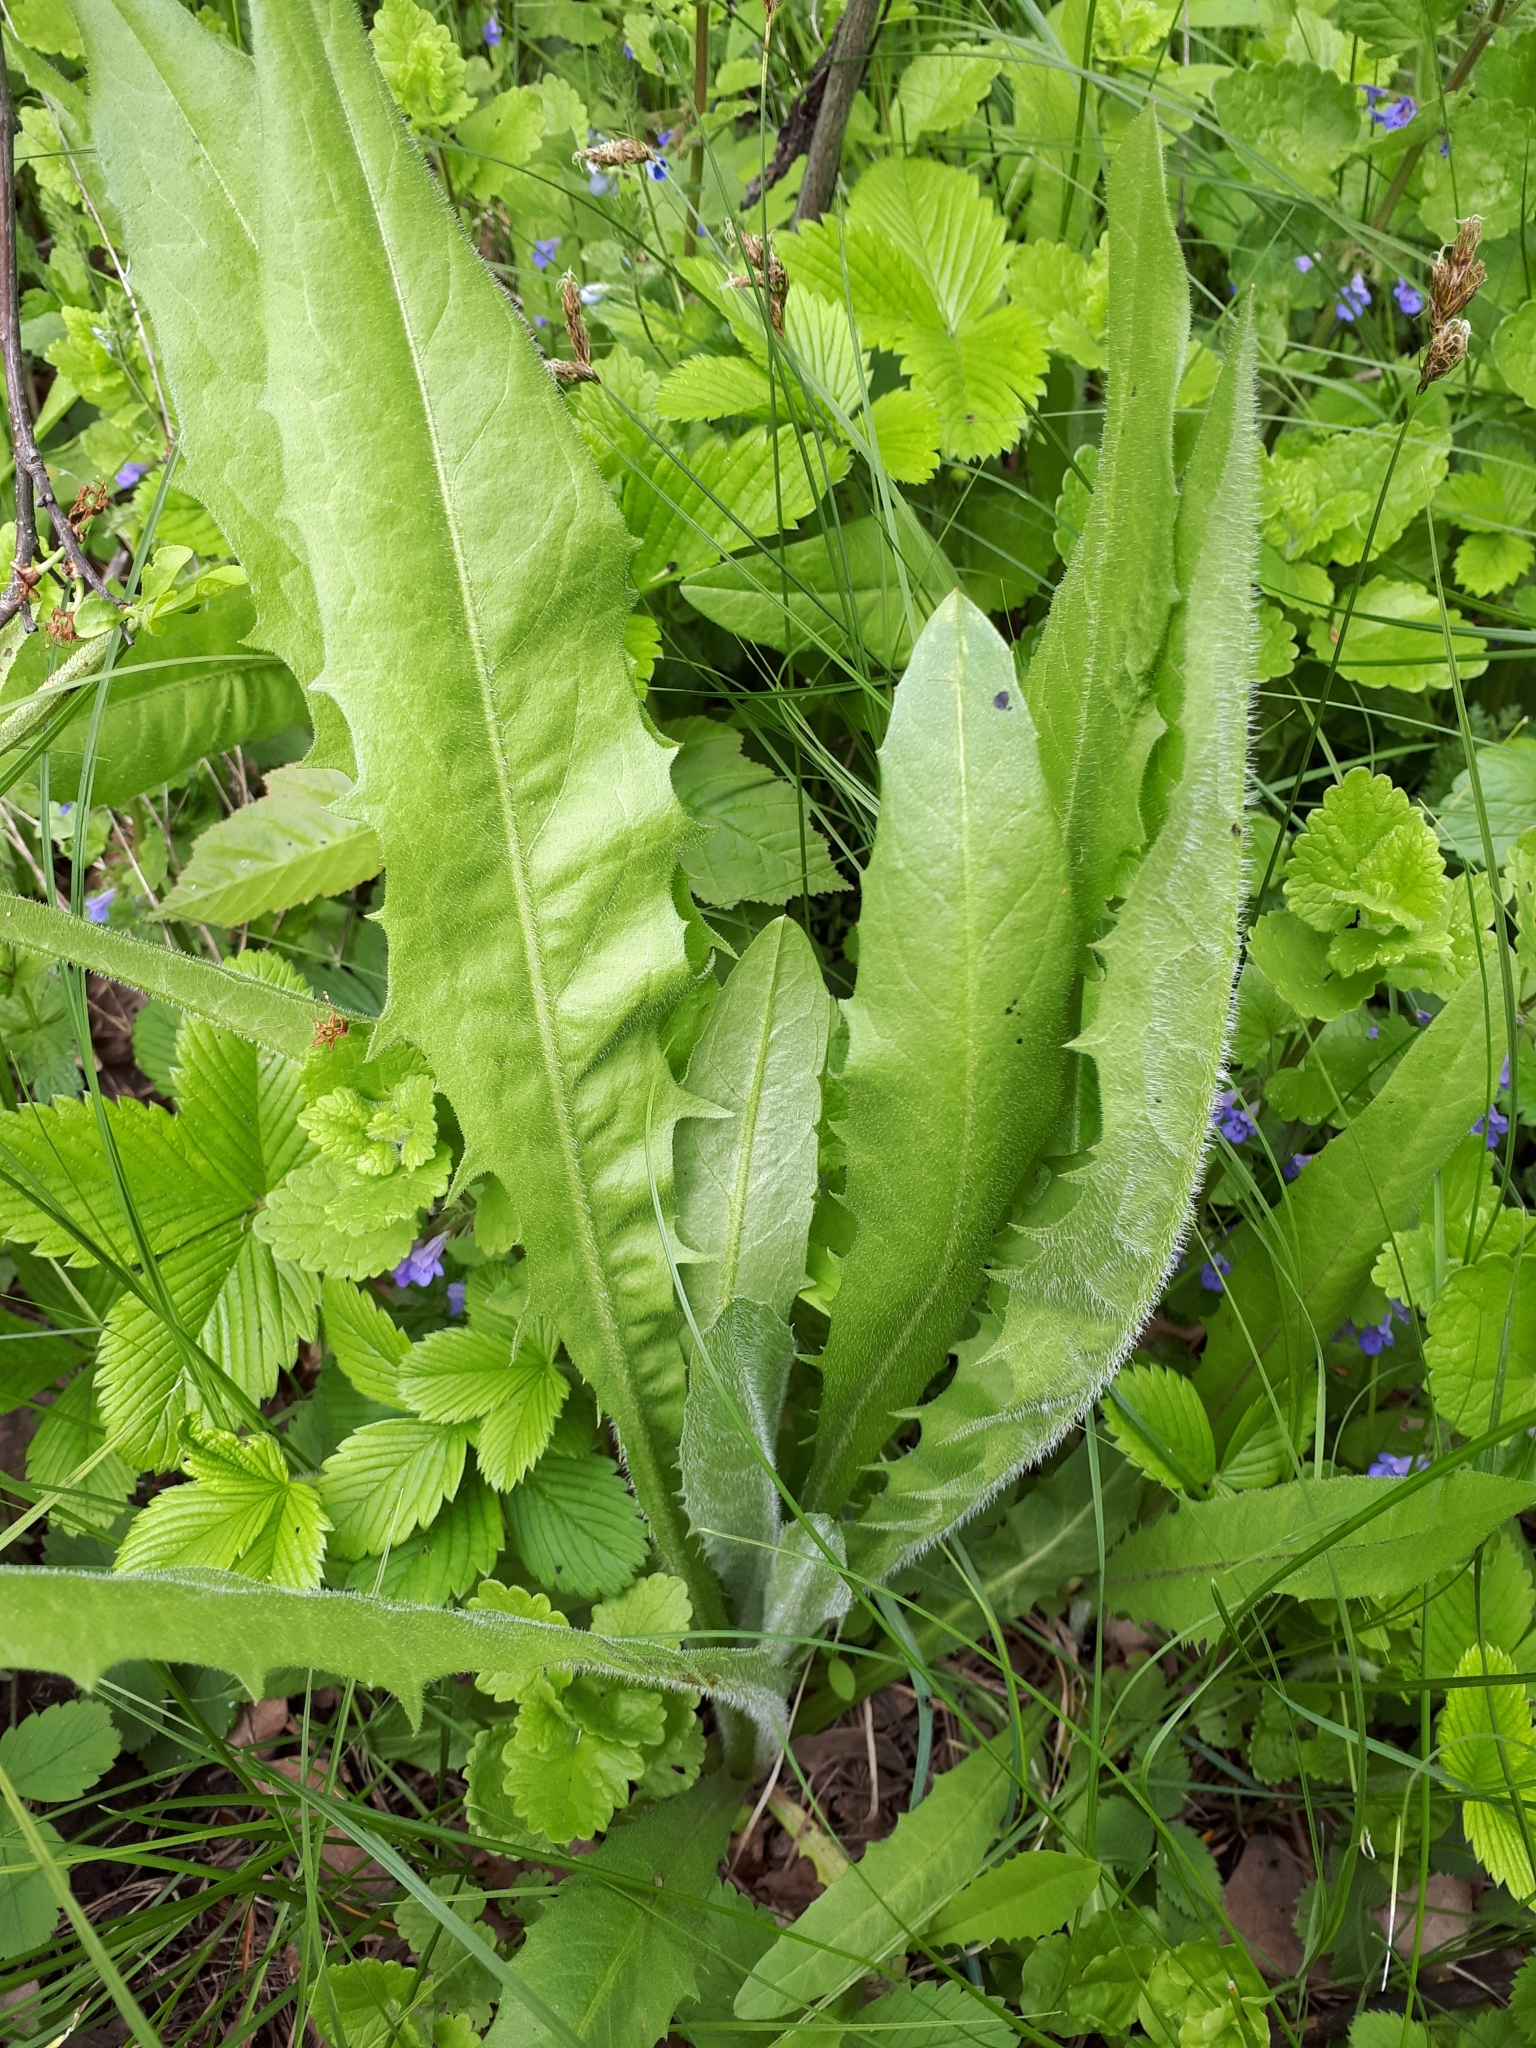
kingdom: Plantae
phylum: Tracheophyta
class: Magnoliopsida
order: Asterales
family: Asteraceae
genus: Cichorium
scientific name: Cichorium intybus
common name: Chicory
